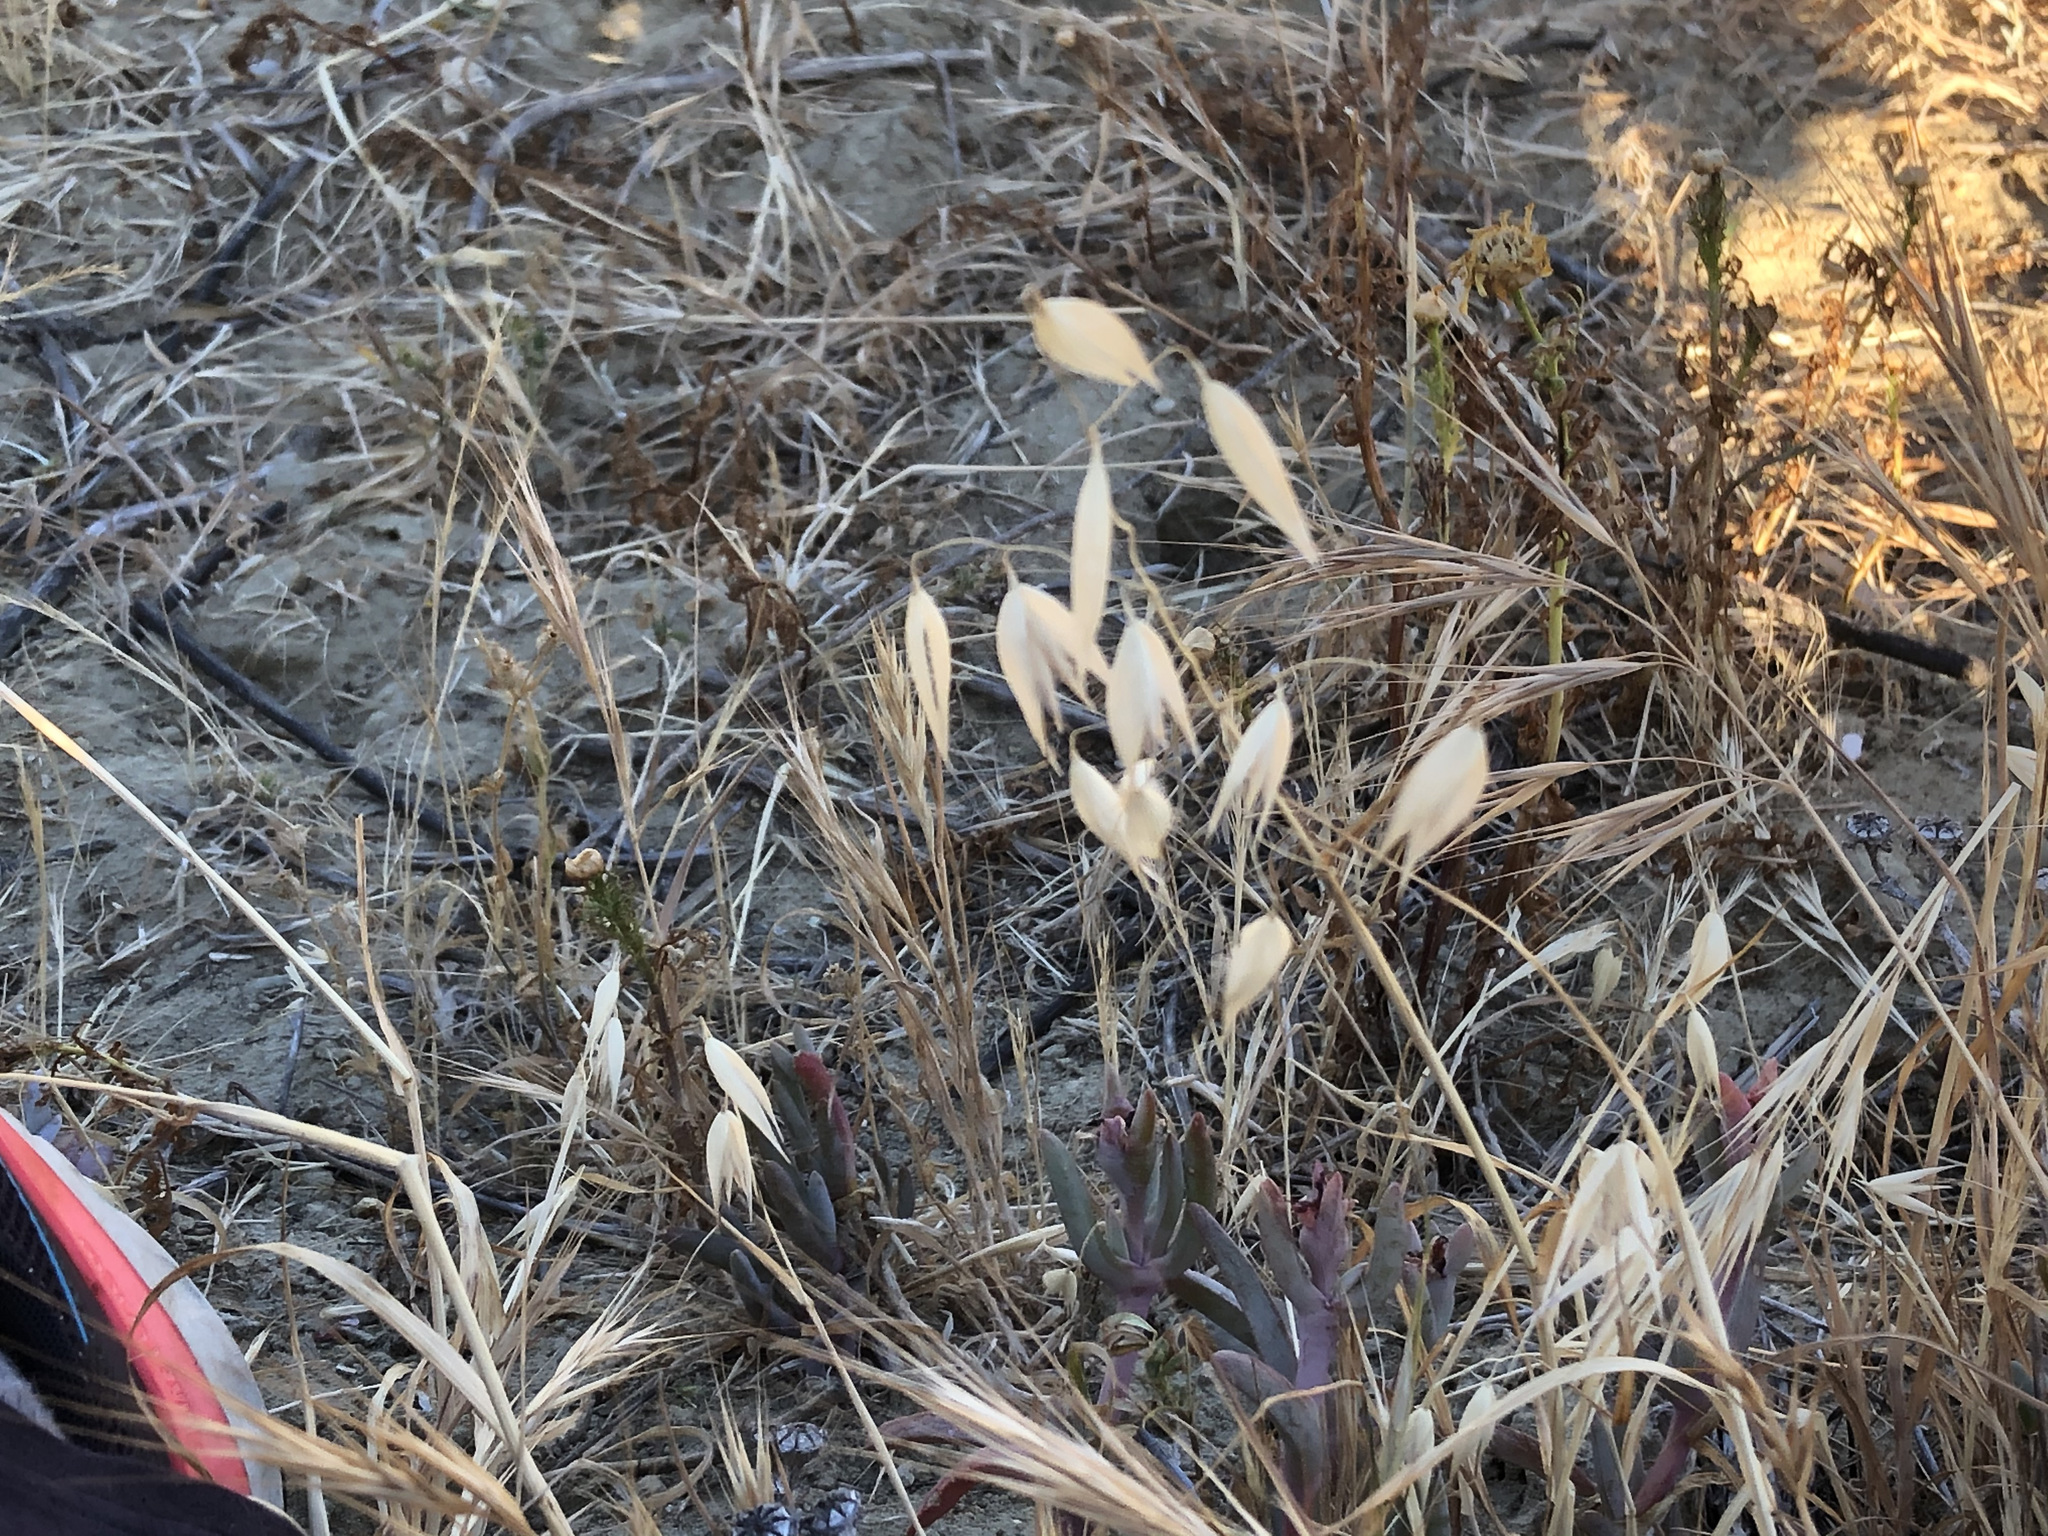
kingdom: Plantae
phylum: Tracheophyta
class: Liliopsida
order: Poales
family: Poaceae
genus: Avena
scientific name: Avena fatua
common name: Wild oat
